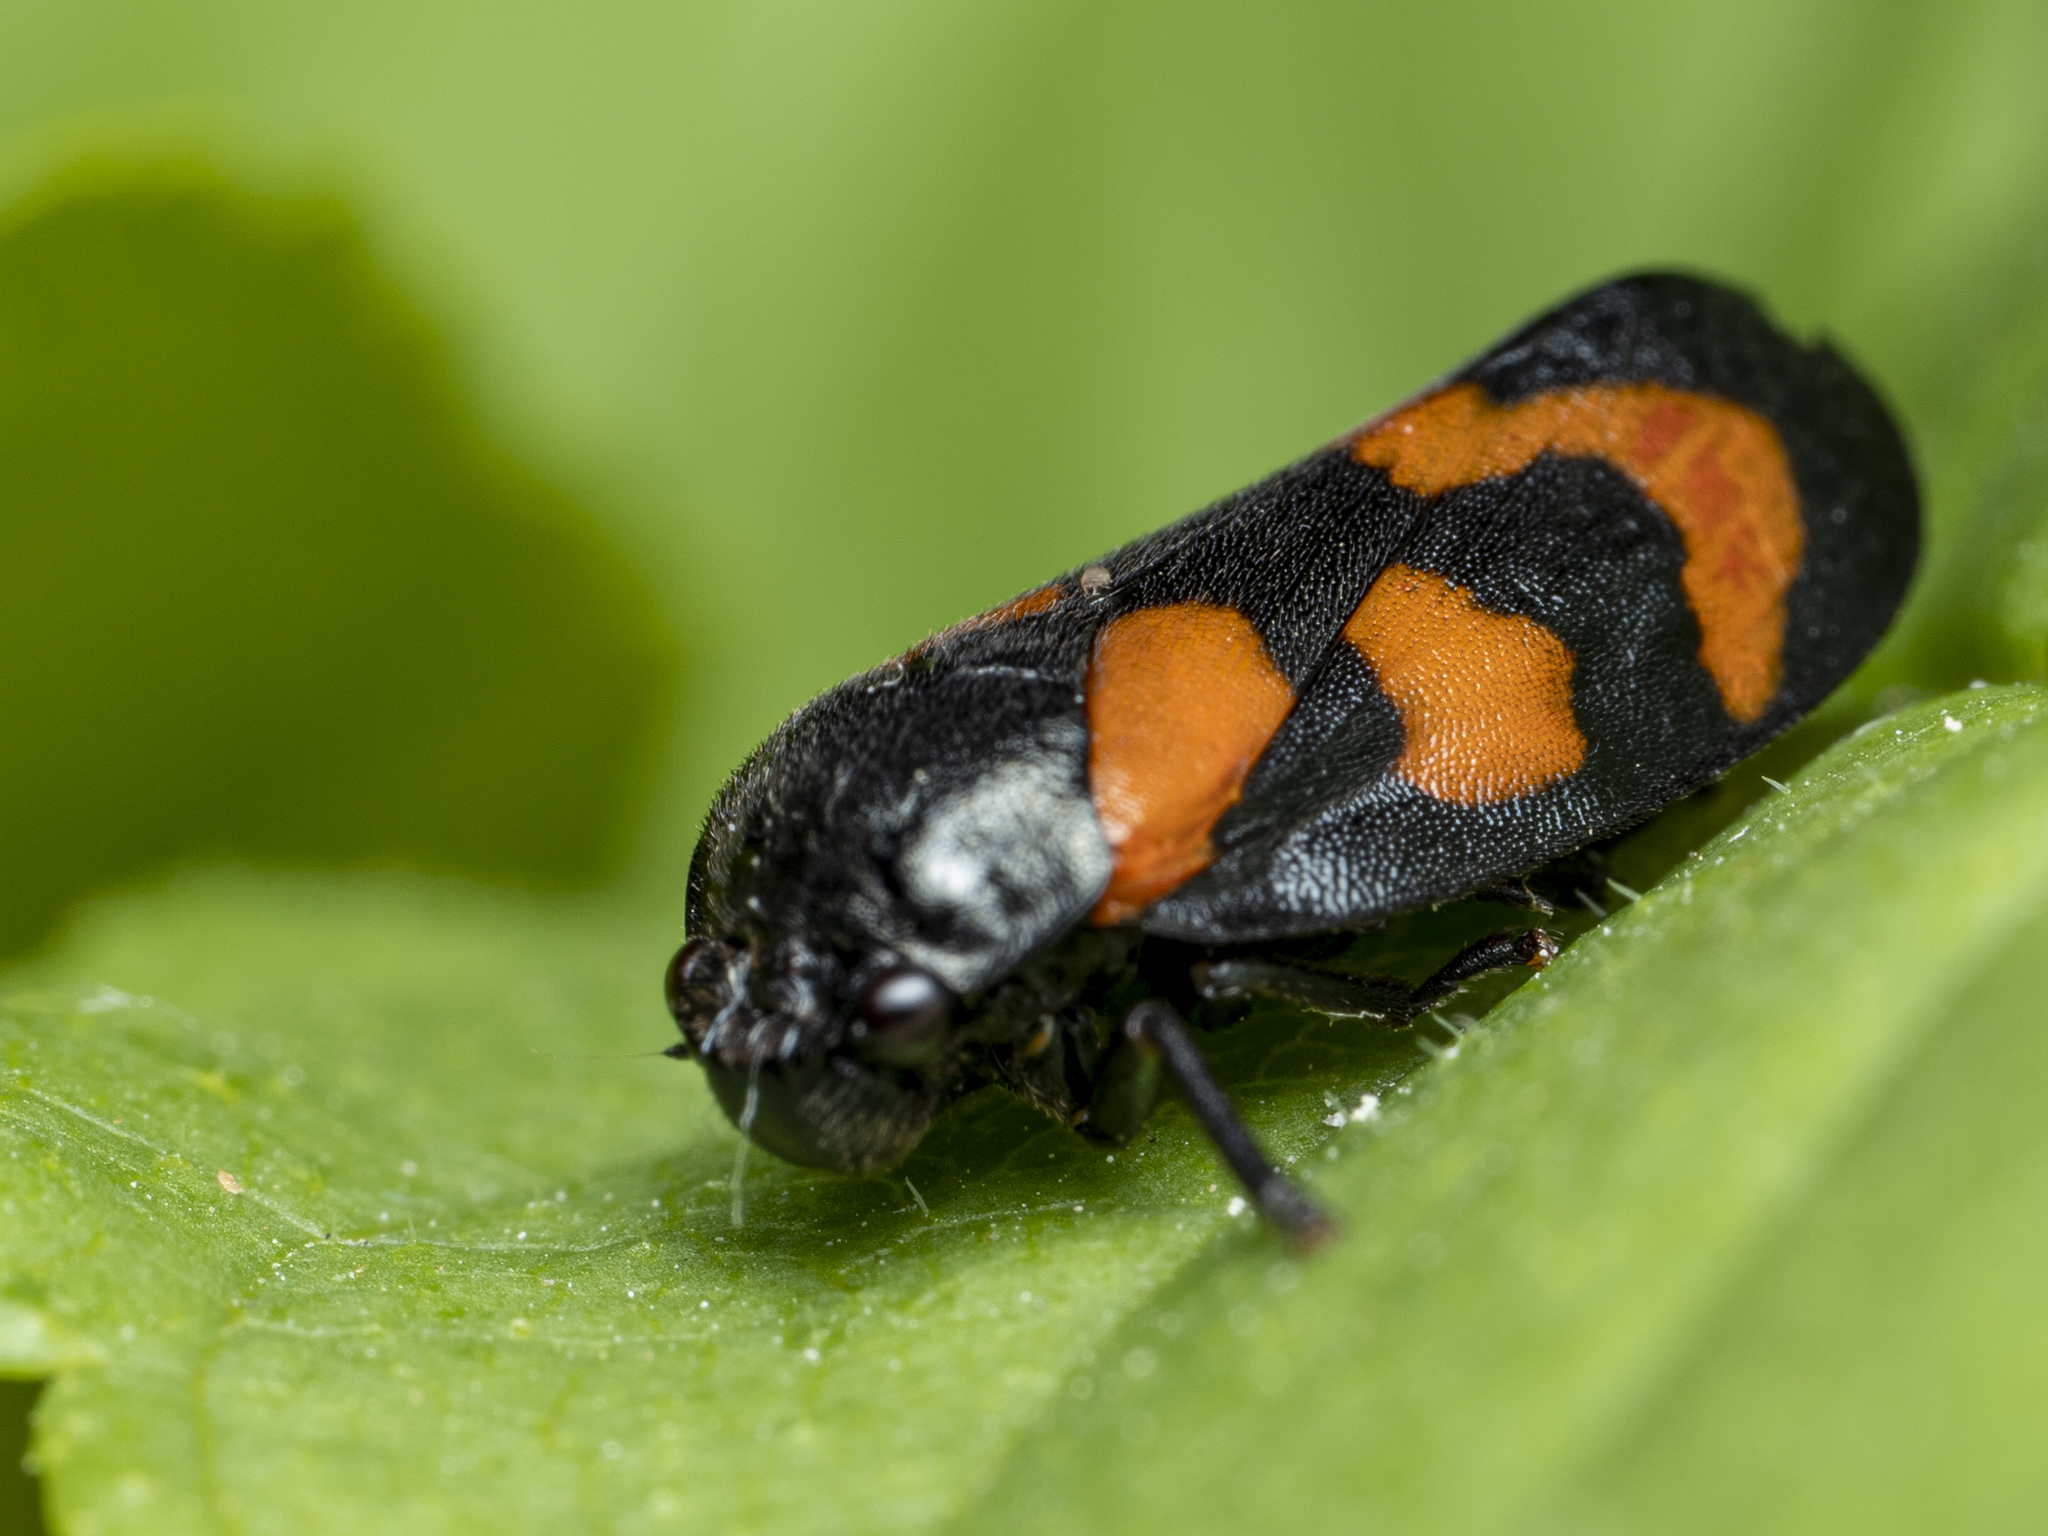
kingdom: Animalia
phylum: Arthropoda
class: Insecta
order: Hemiptera
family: Cercopidae
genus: Cercopis
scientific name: Cercopis vulnerata
